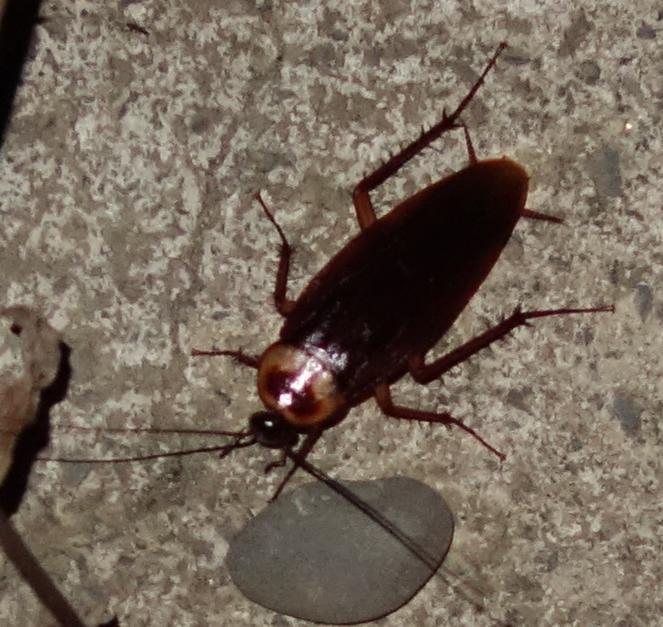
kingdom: Animalia
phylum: Arthropoda
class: Insecta
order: Blattodea
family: Blattidae
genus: Periplaneta
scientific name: Periplaneta americana
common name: American cockroach
